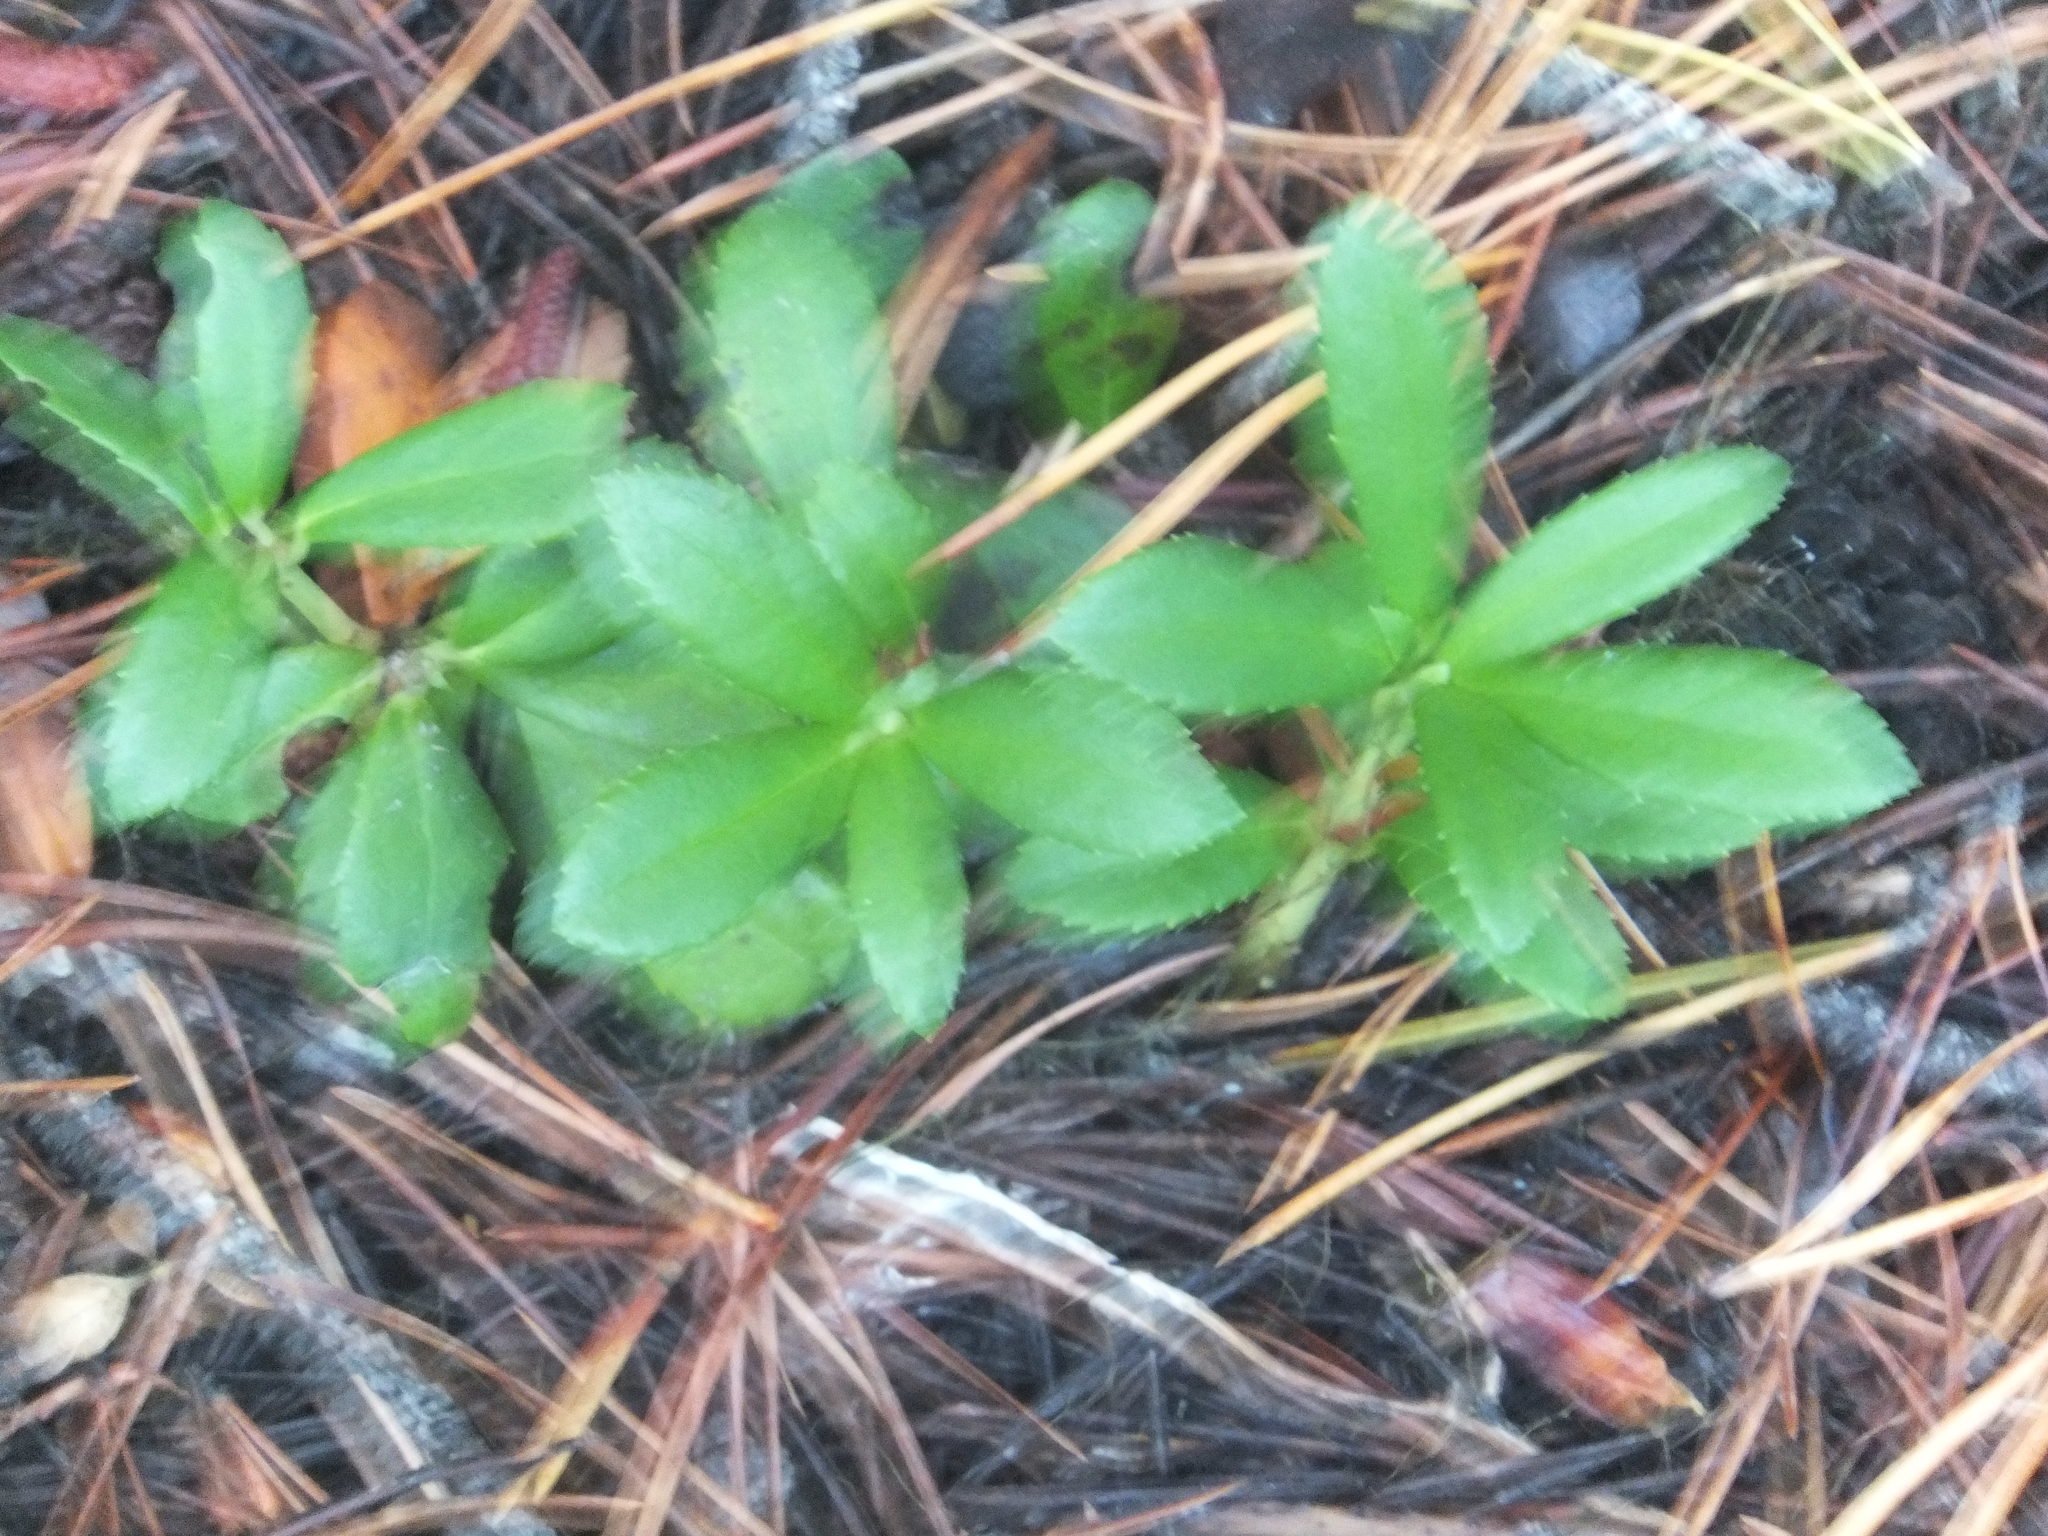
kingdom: Plantae
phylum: Tracheophyta
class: Magnoliopsida
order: Ericales
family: Ericaceae
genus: Chimaphila
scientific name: Chimaphila umbellata
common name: Pipsissewa
